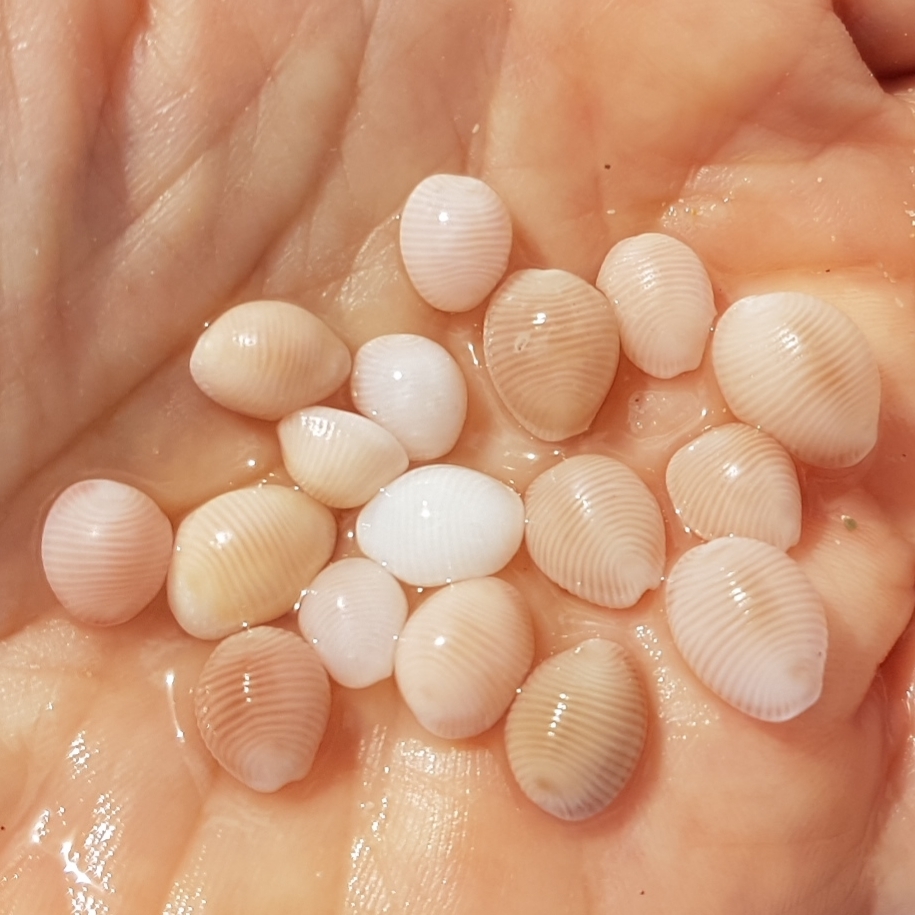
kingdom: Animalia
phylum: Mollusca
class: Gastropoda
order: Littorinimorpha
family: Triviidae
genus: Trivia
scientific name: Trivia arctica
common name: Arctic cowrie
